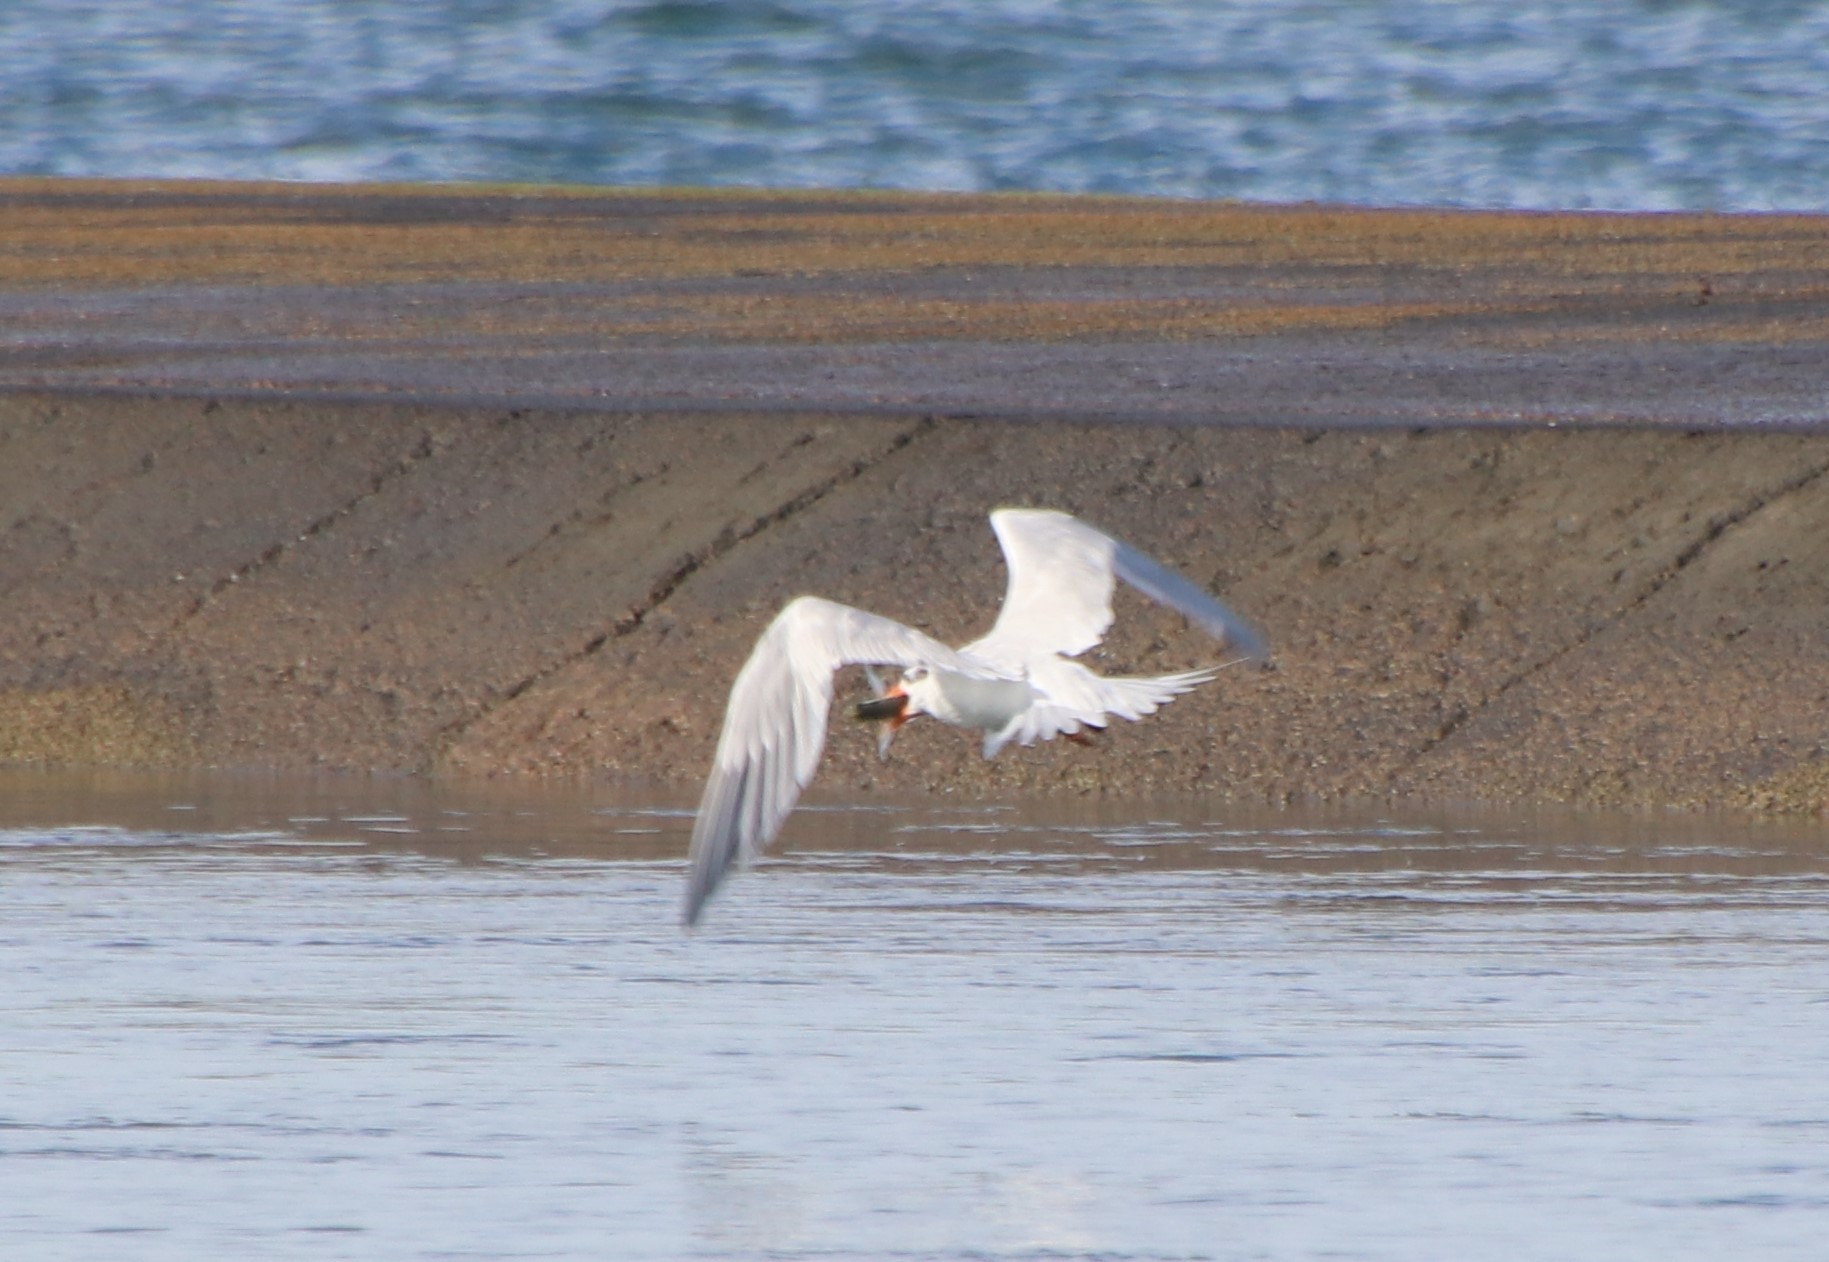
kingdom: Animalia
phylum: Chordata
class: Aves
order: Charadriiformes
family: Laridae
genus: Thalasseus
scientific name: Thalasseus maximus
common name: Royal tern
